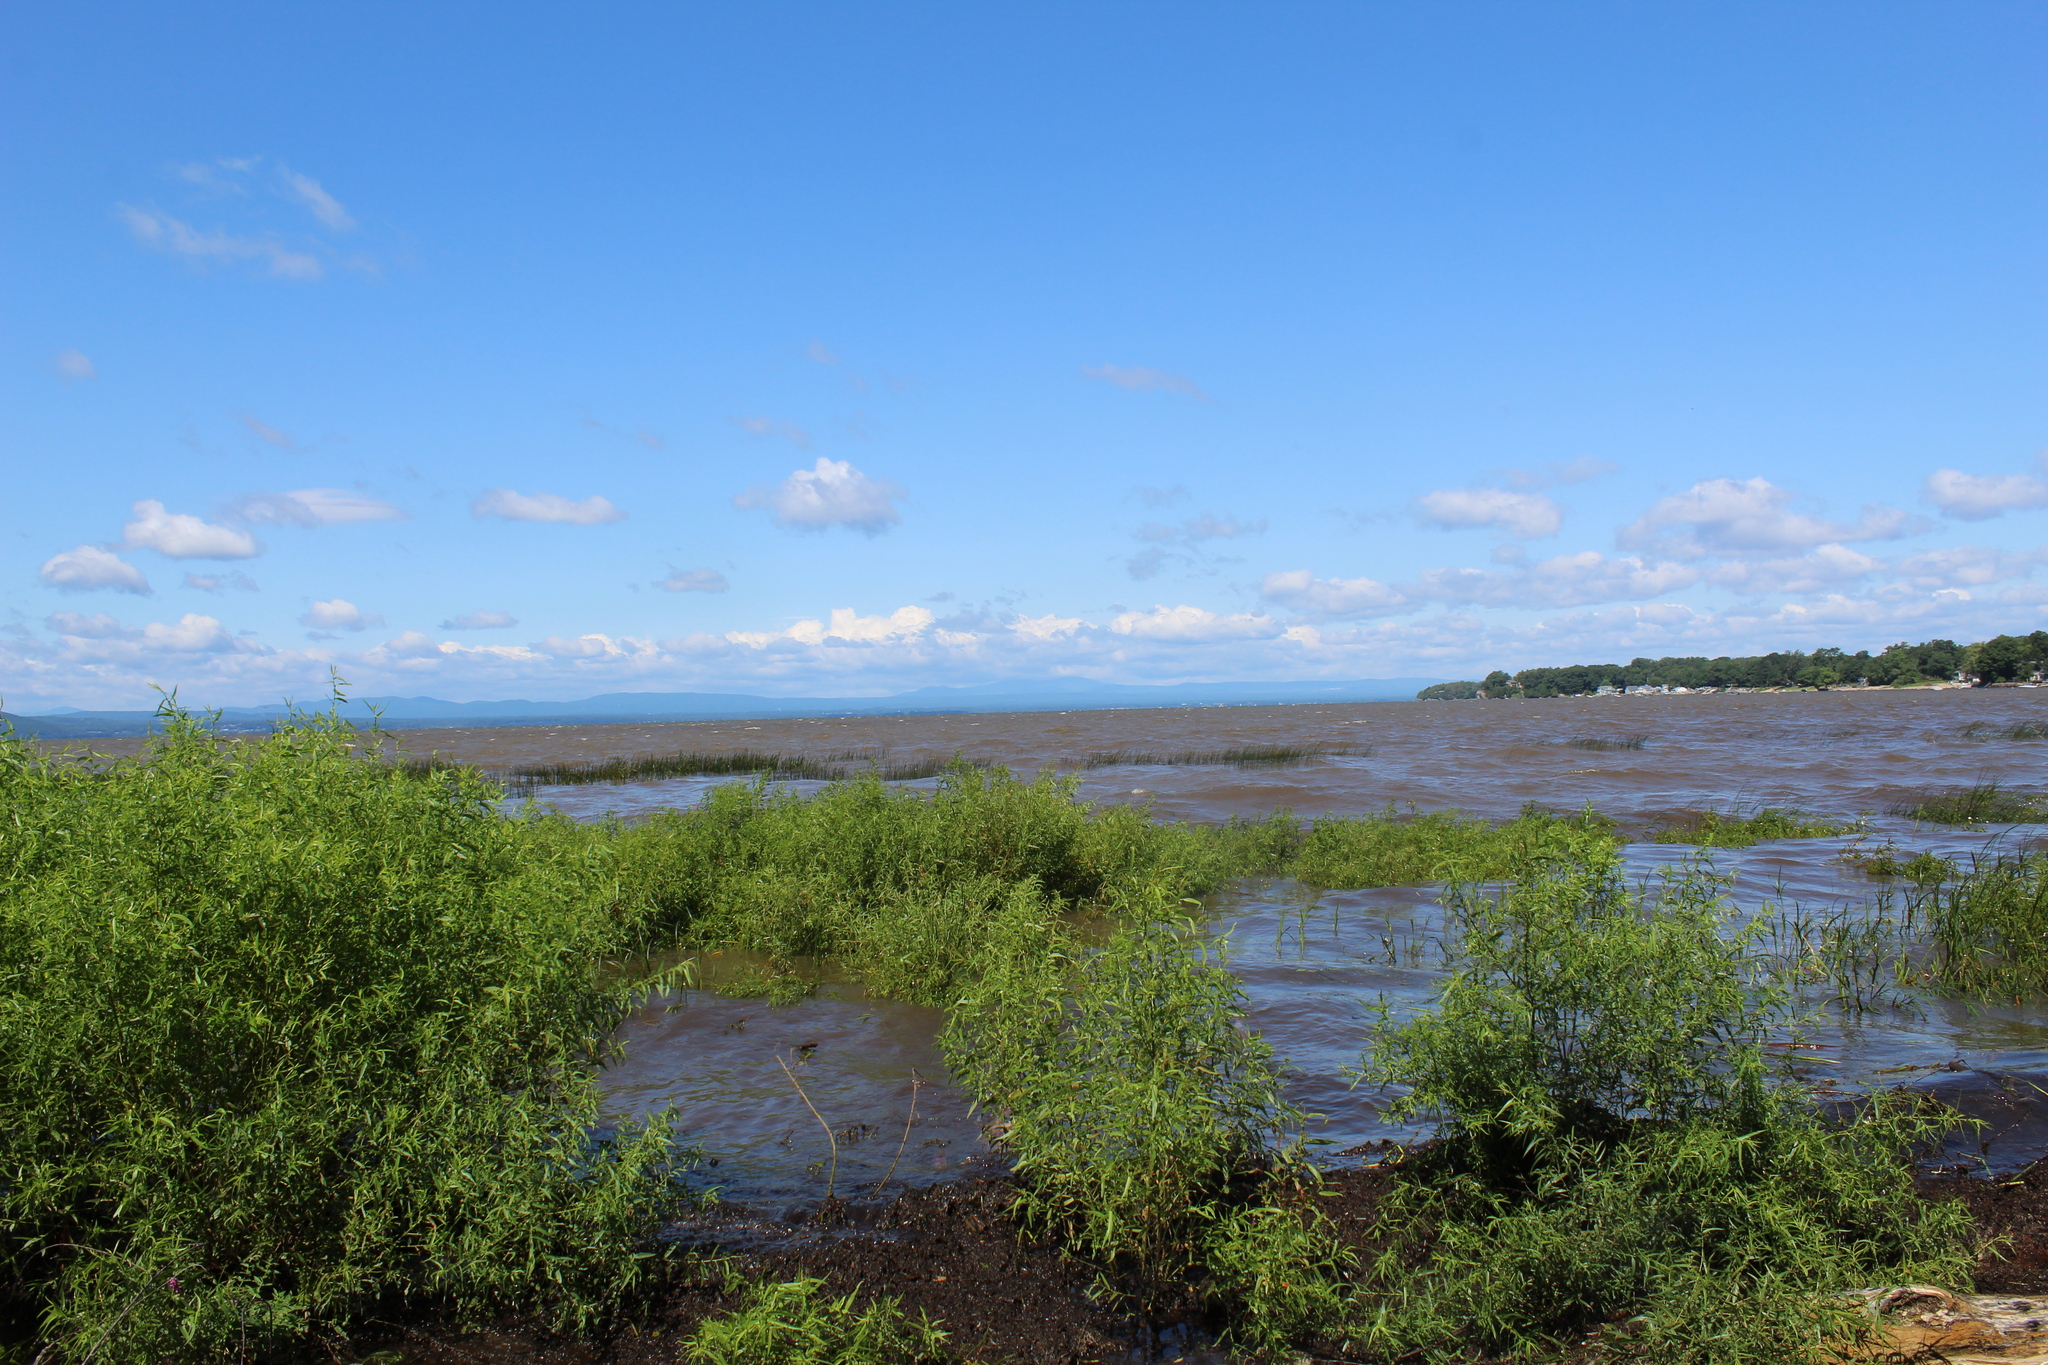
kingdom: Plantae
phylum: Tracheophyta
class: Magnoliopsida
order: Malpighiales
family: Salicaceae
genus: Salix
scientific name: Salix nigra
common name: Black willow
